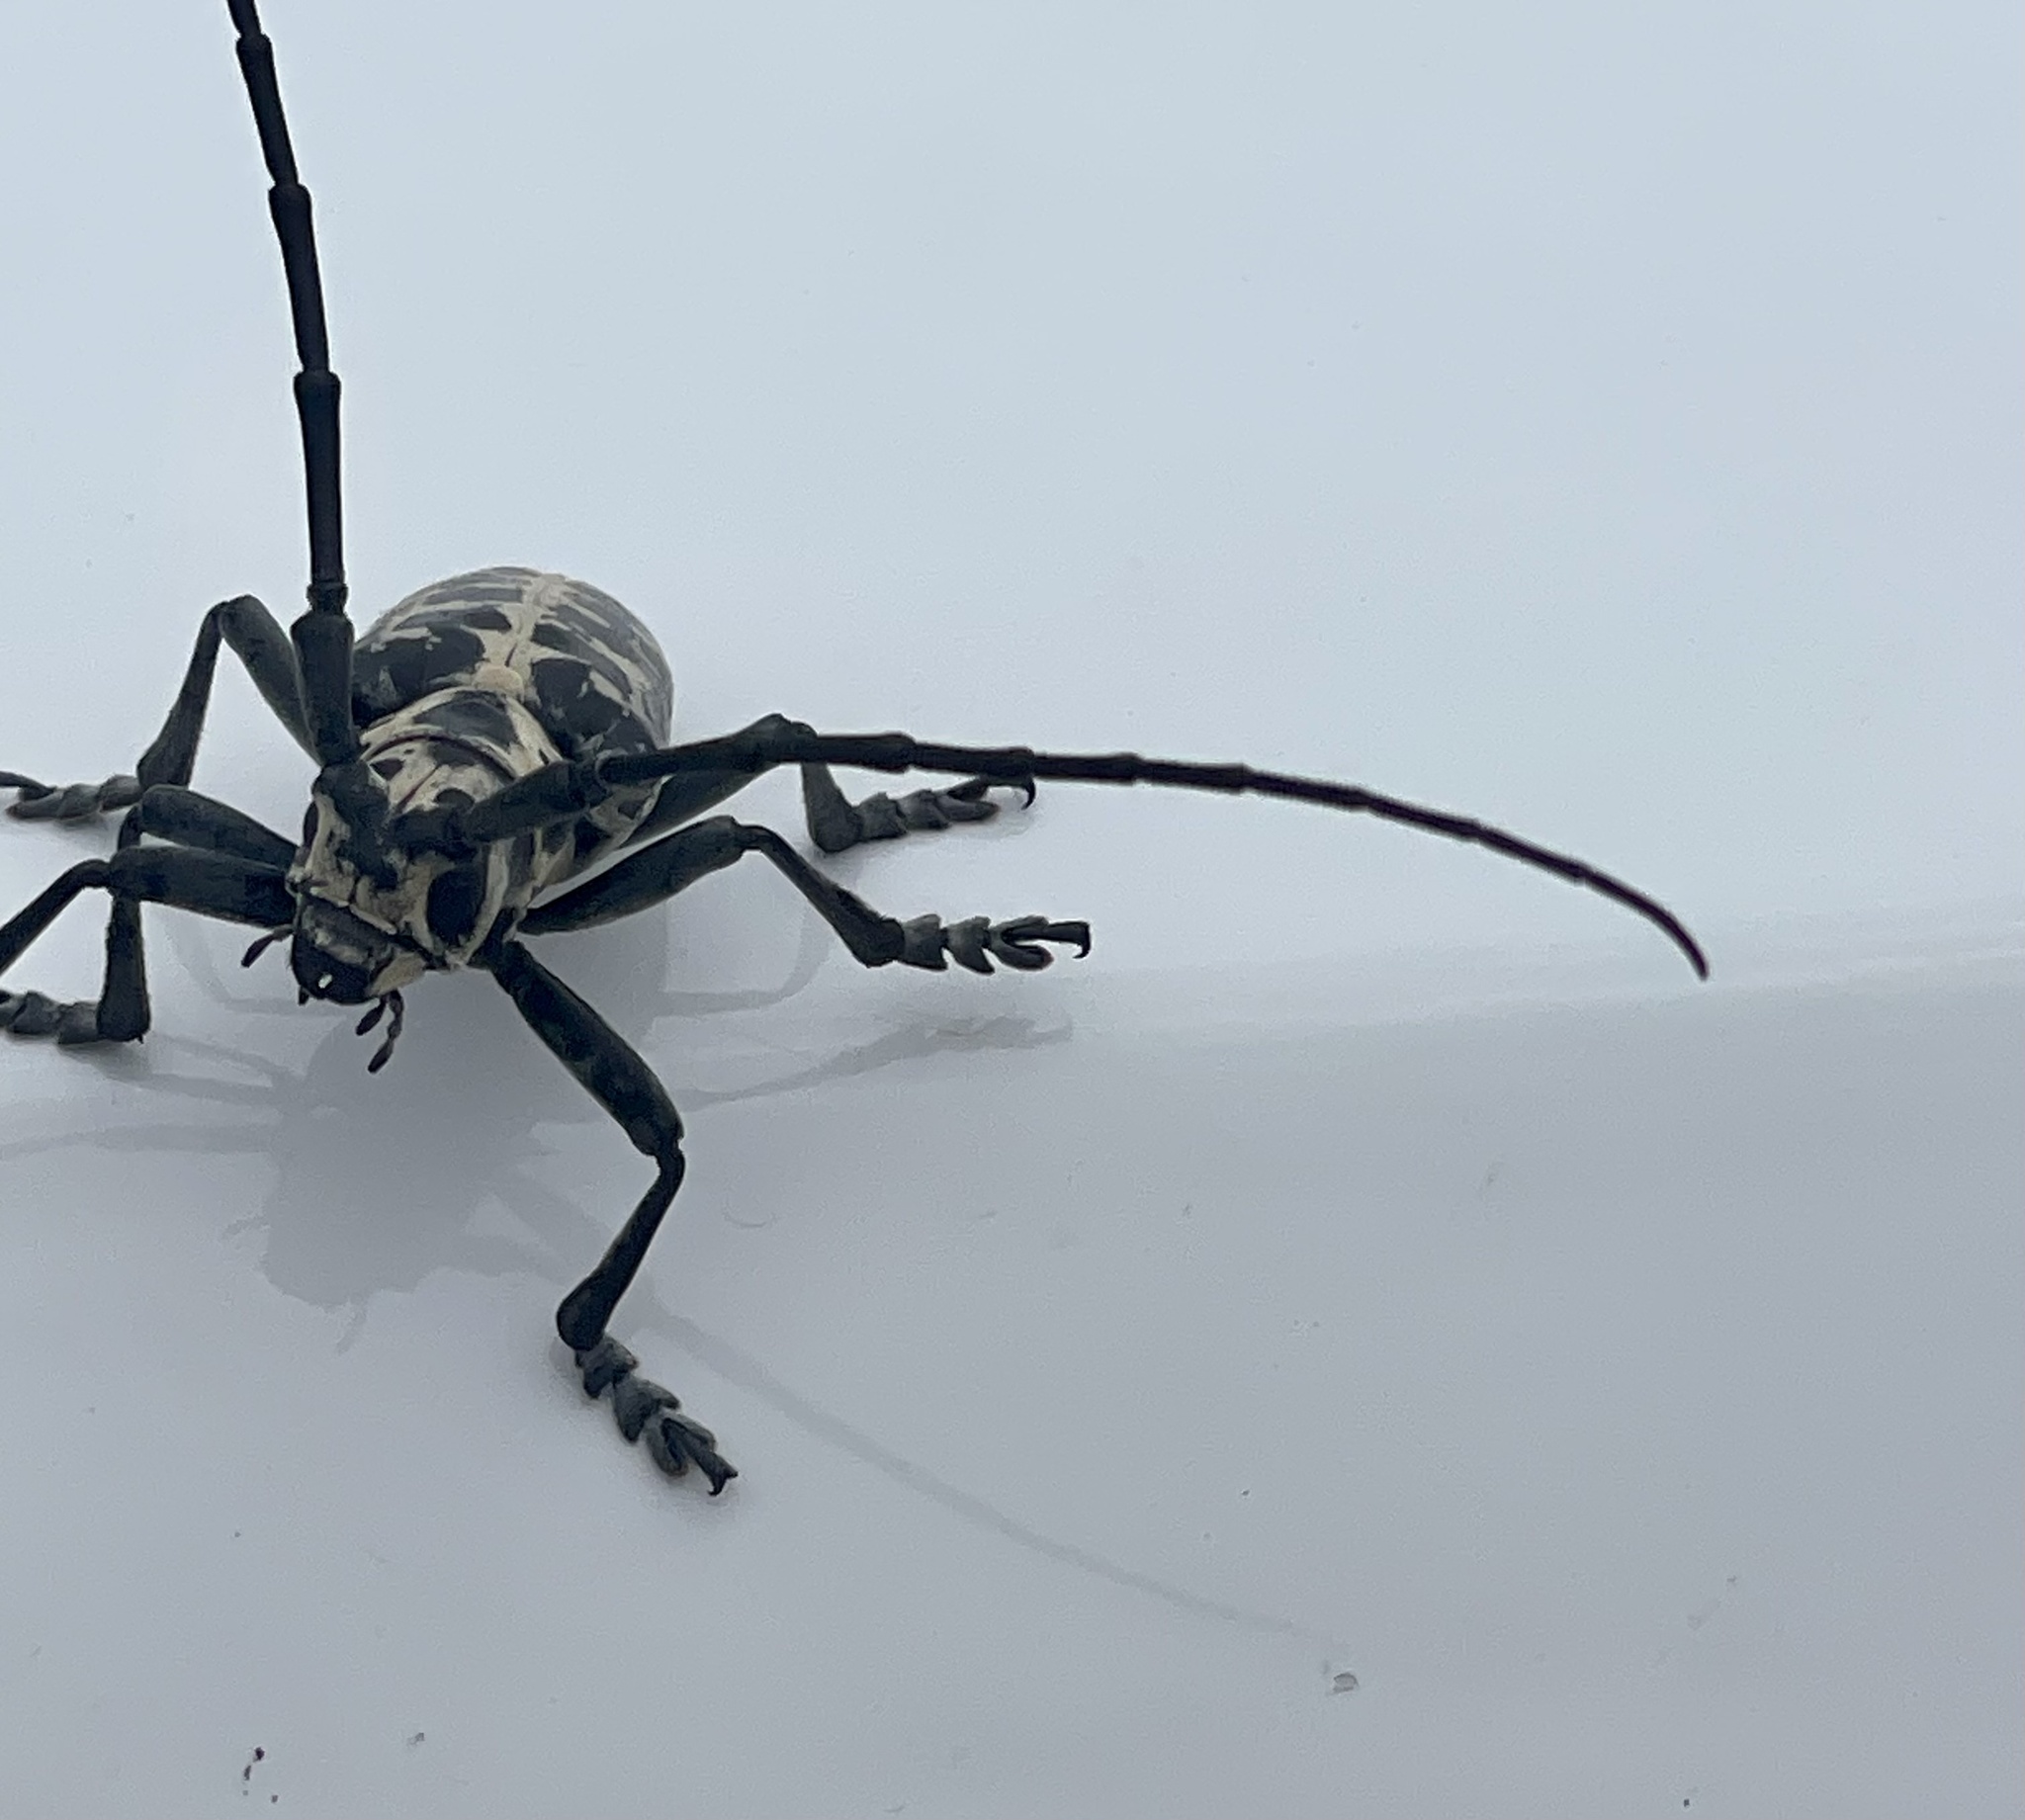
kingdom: Animalia
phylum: Arthropoda
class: Insecta
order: Coleoptera
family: Cerambycidae
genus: Plectrodera
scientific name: Plectrodera scalator
